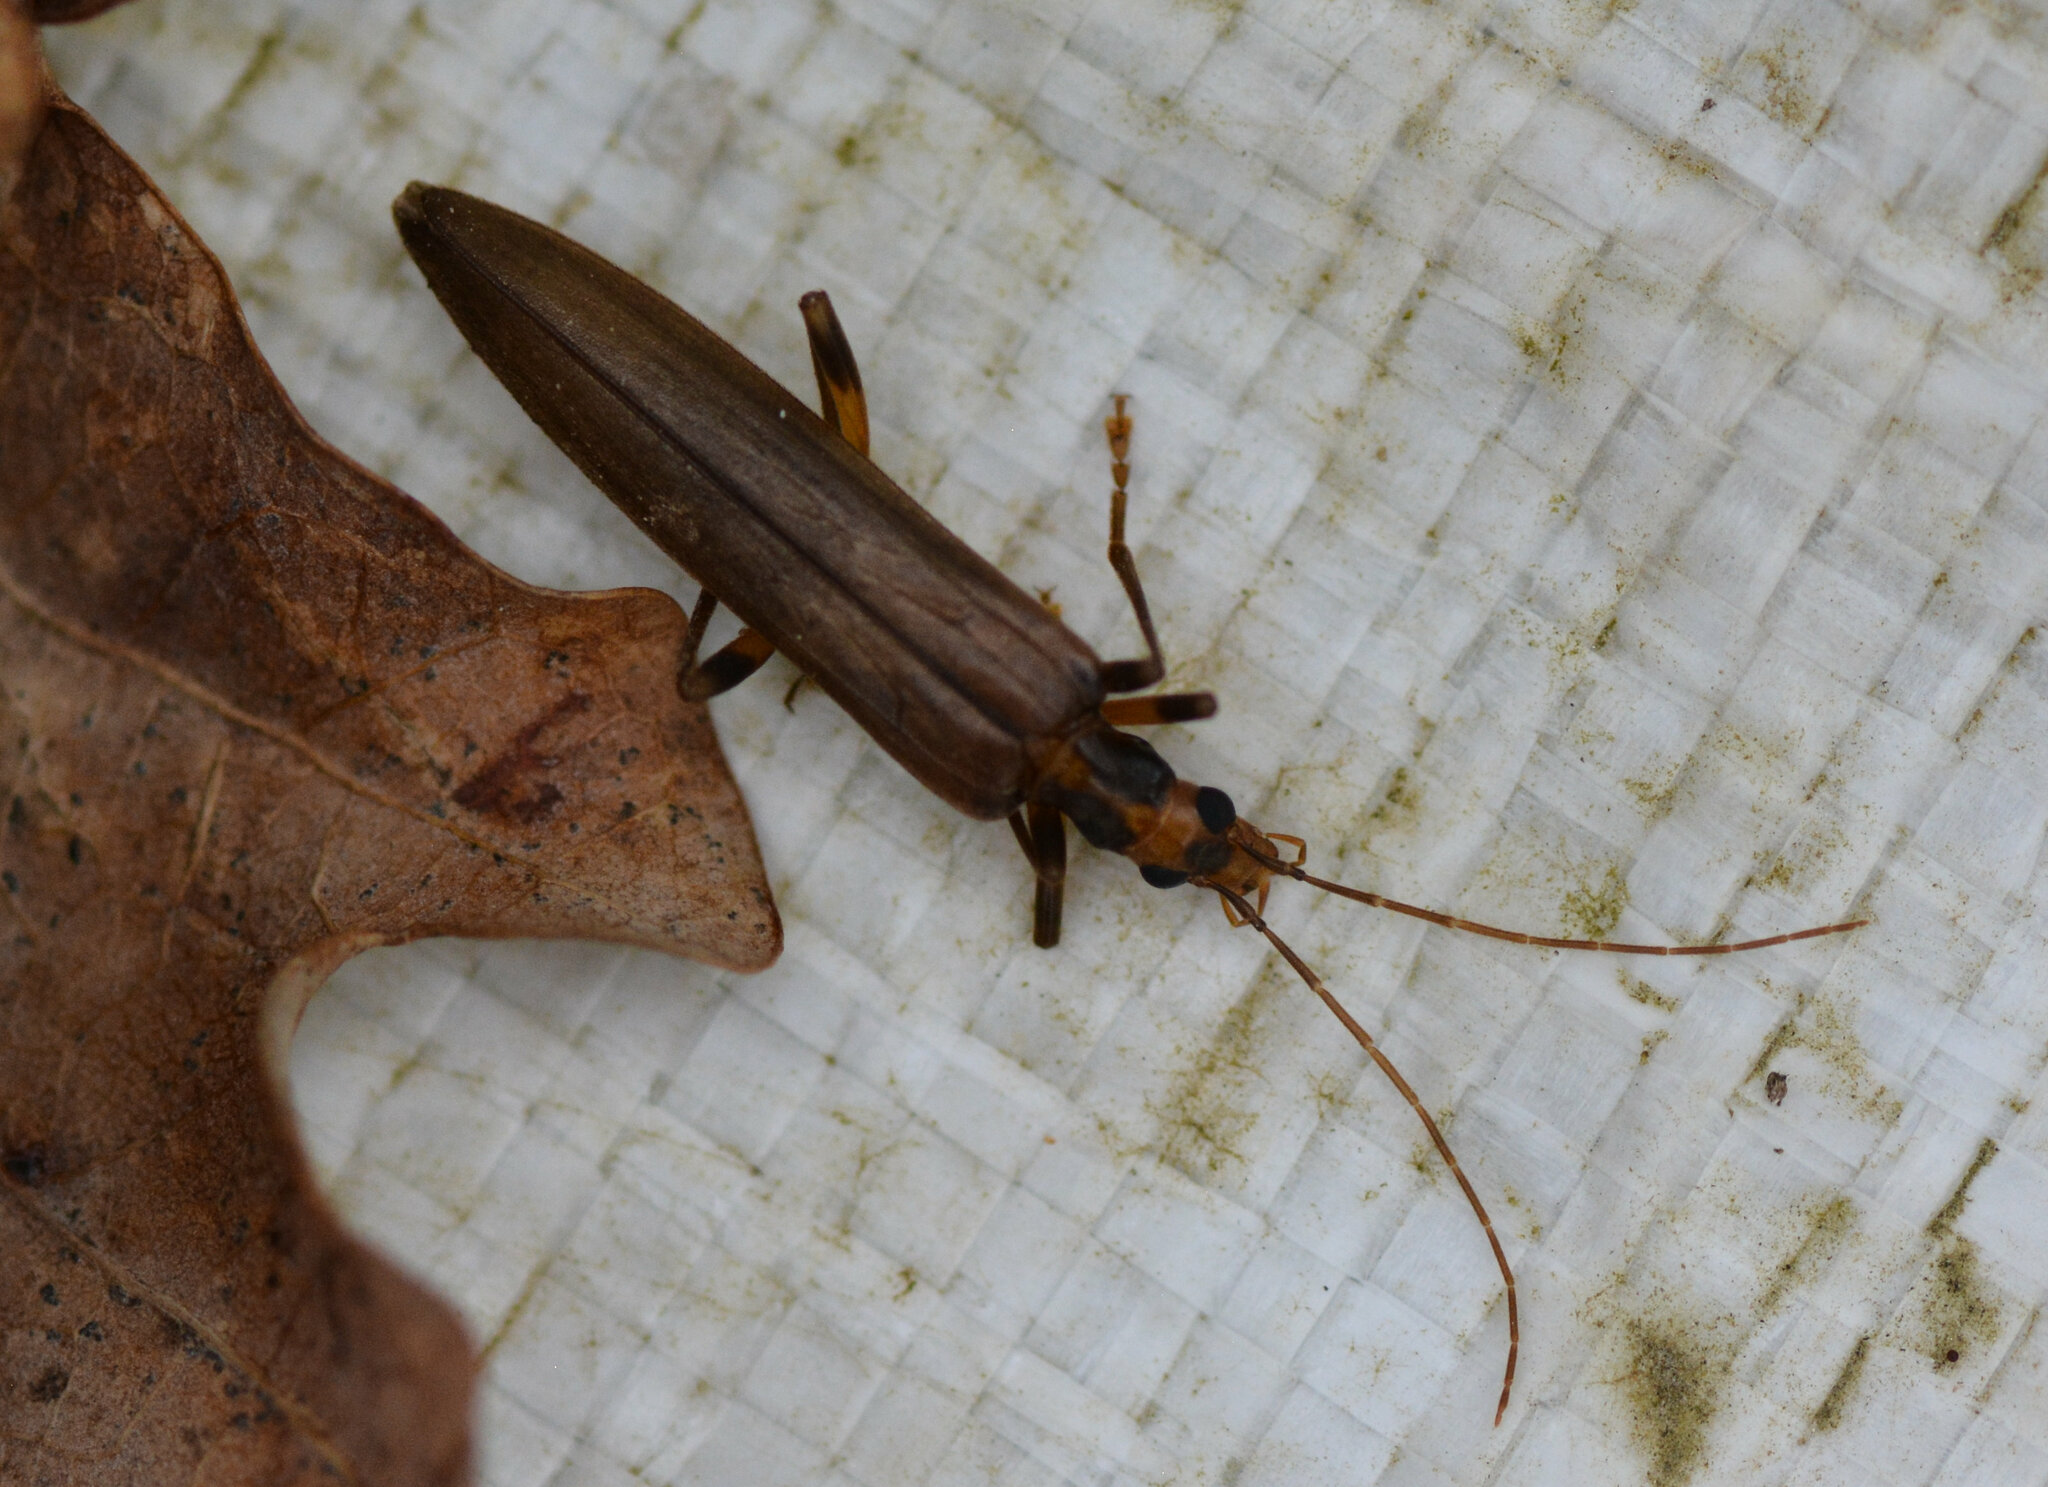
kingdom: Animalia
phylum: Arthropoda
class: Insecta
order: Coleoptera
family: Oedemeridae
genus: Oedemera
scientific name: Oedemera femoralis
